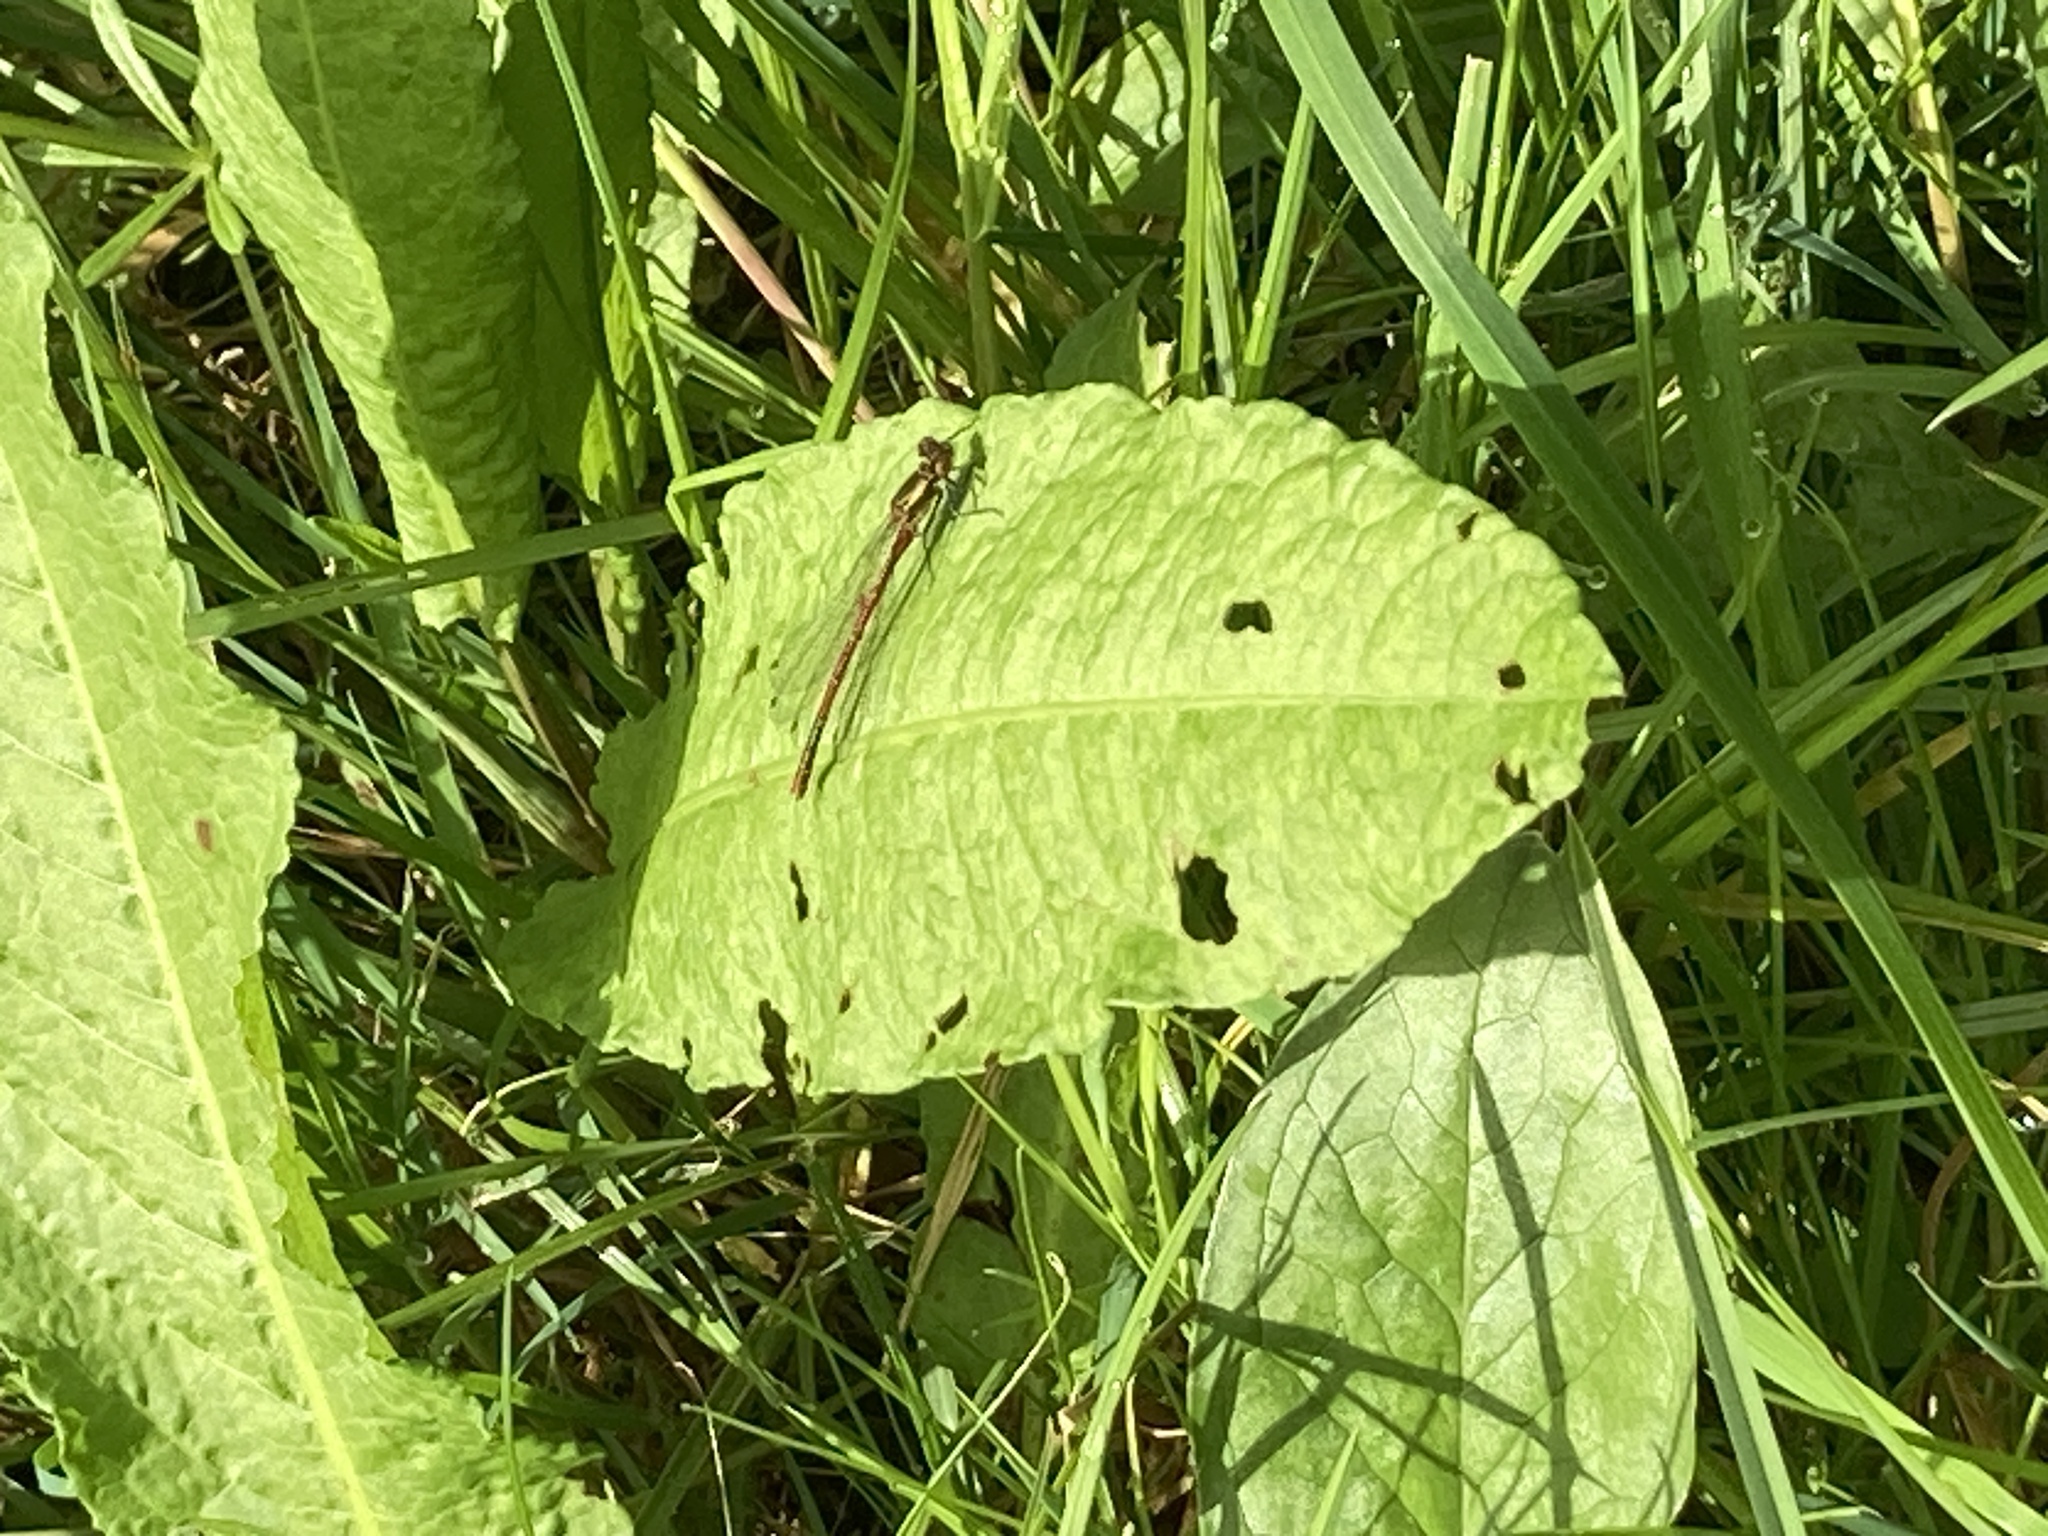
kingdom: Animalia
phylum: Arthropoda
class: Insecta
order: Odonata
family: Coenagrionidae
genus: Pyrrhosoma
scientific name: Pyrrhosoma nymphula
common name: Large red damsel
